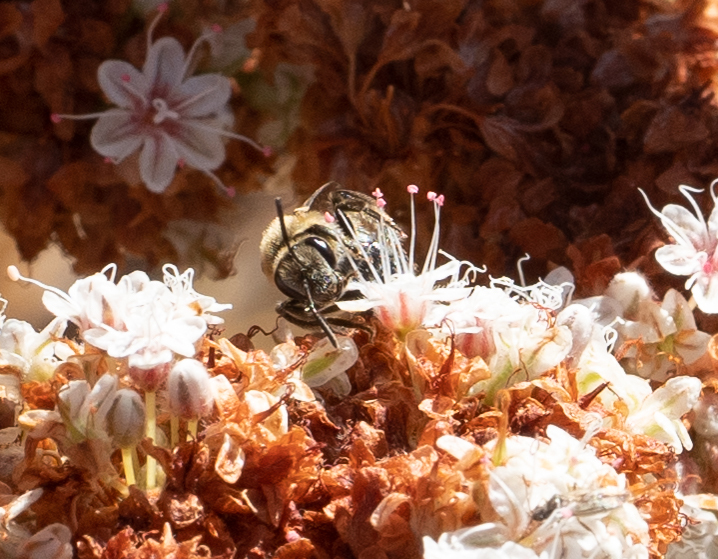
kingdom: Animalia
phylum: Arthropoda
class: Insecta
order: Hymenoptera
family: Halictidae
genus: Lasioglossum
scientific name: Lasioglossum sisymbrii
